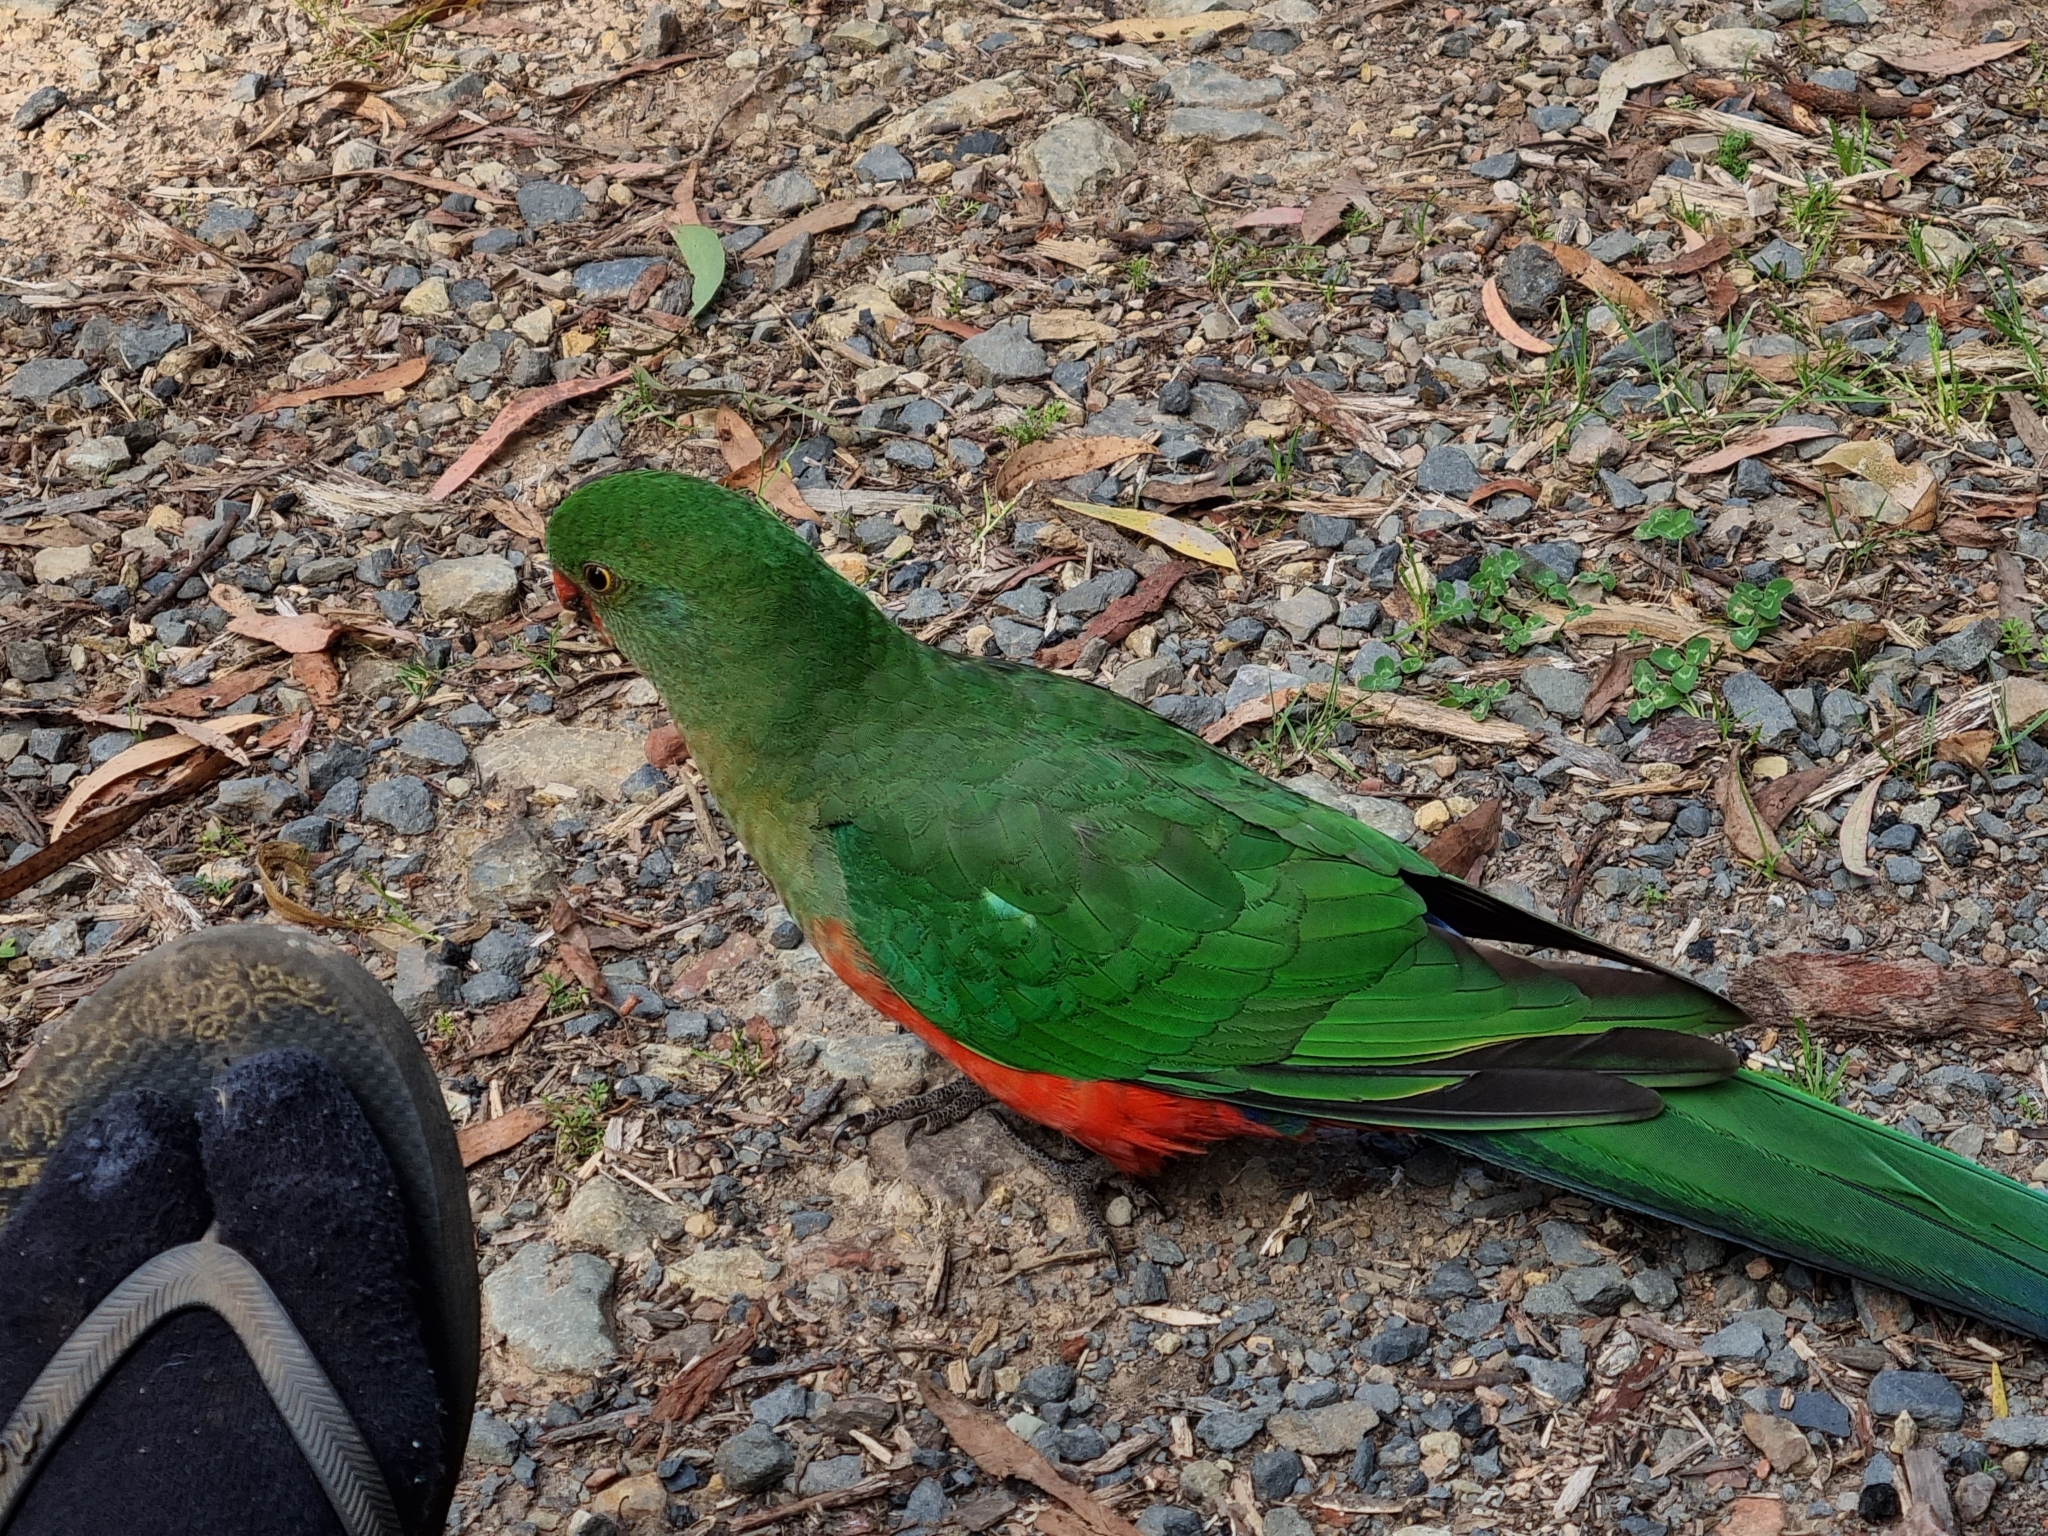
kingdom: Animalia
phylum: Chordata
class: Aves
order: Psittaciformes
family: Psittacidae
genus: Alisterus
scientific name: Alisterus scapularis
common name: Australian king parrot
